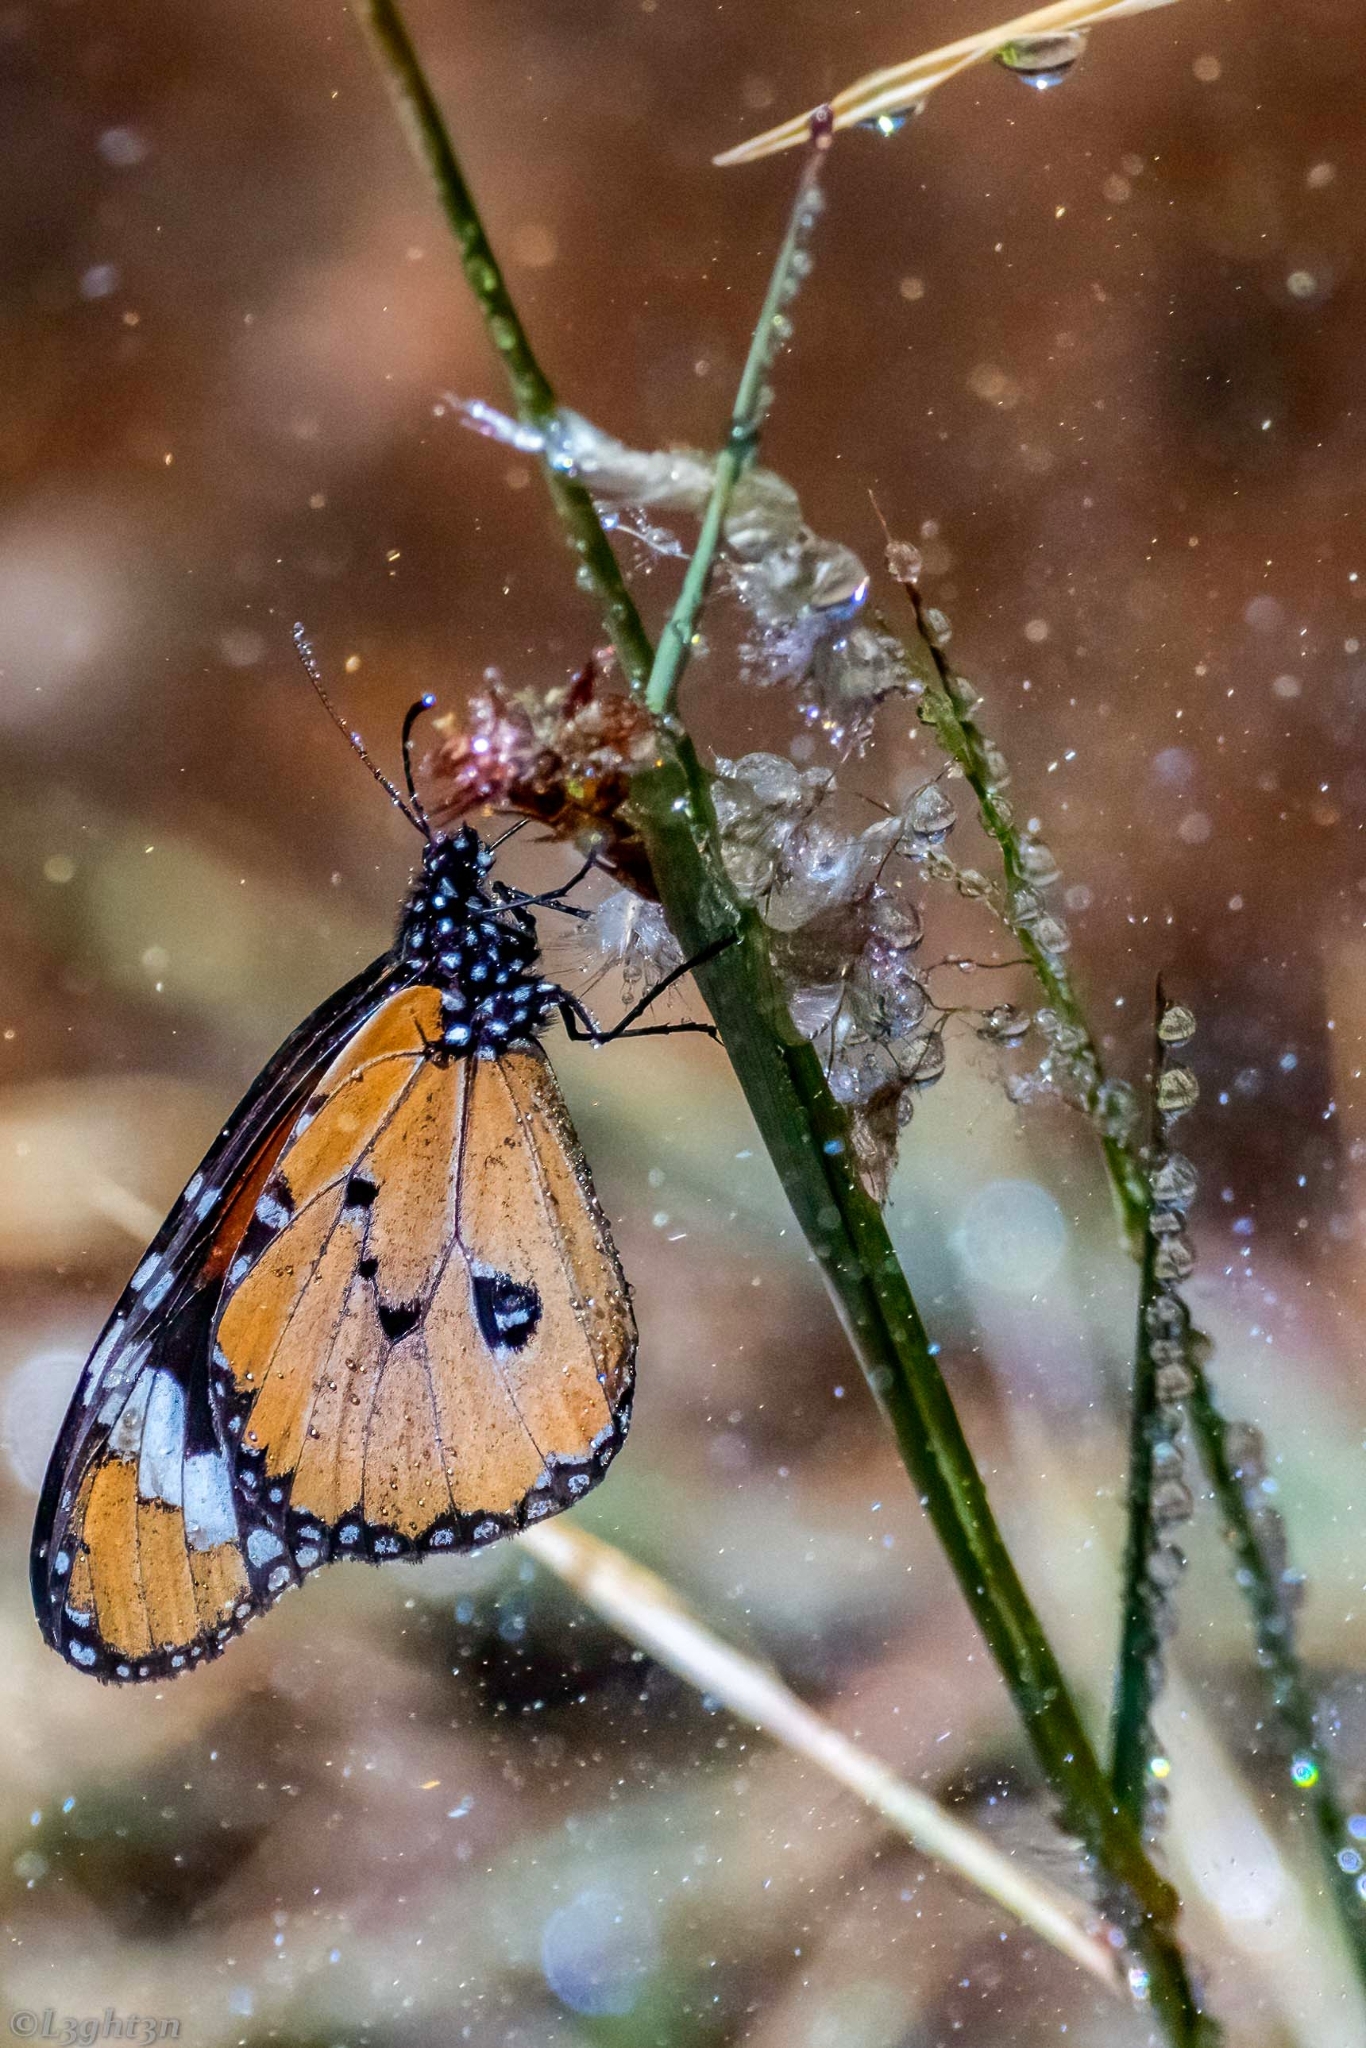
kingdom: Animalia
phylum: Arthropoda
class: Insecta
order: Lepidoptera
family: Nymphalidae
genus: Danaus
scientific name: Danaus chrysippus
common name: Plain tiger
